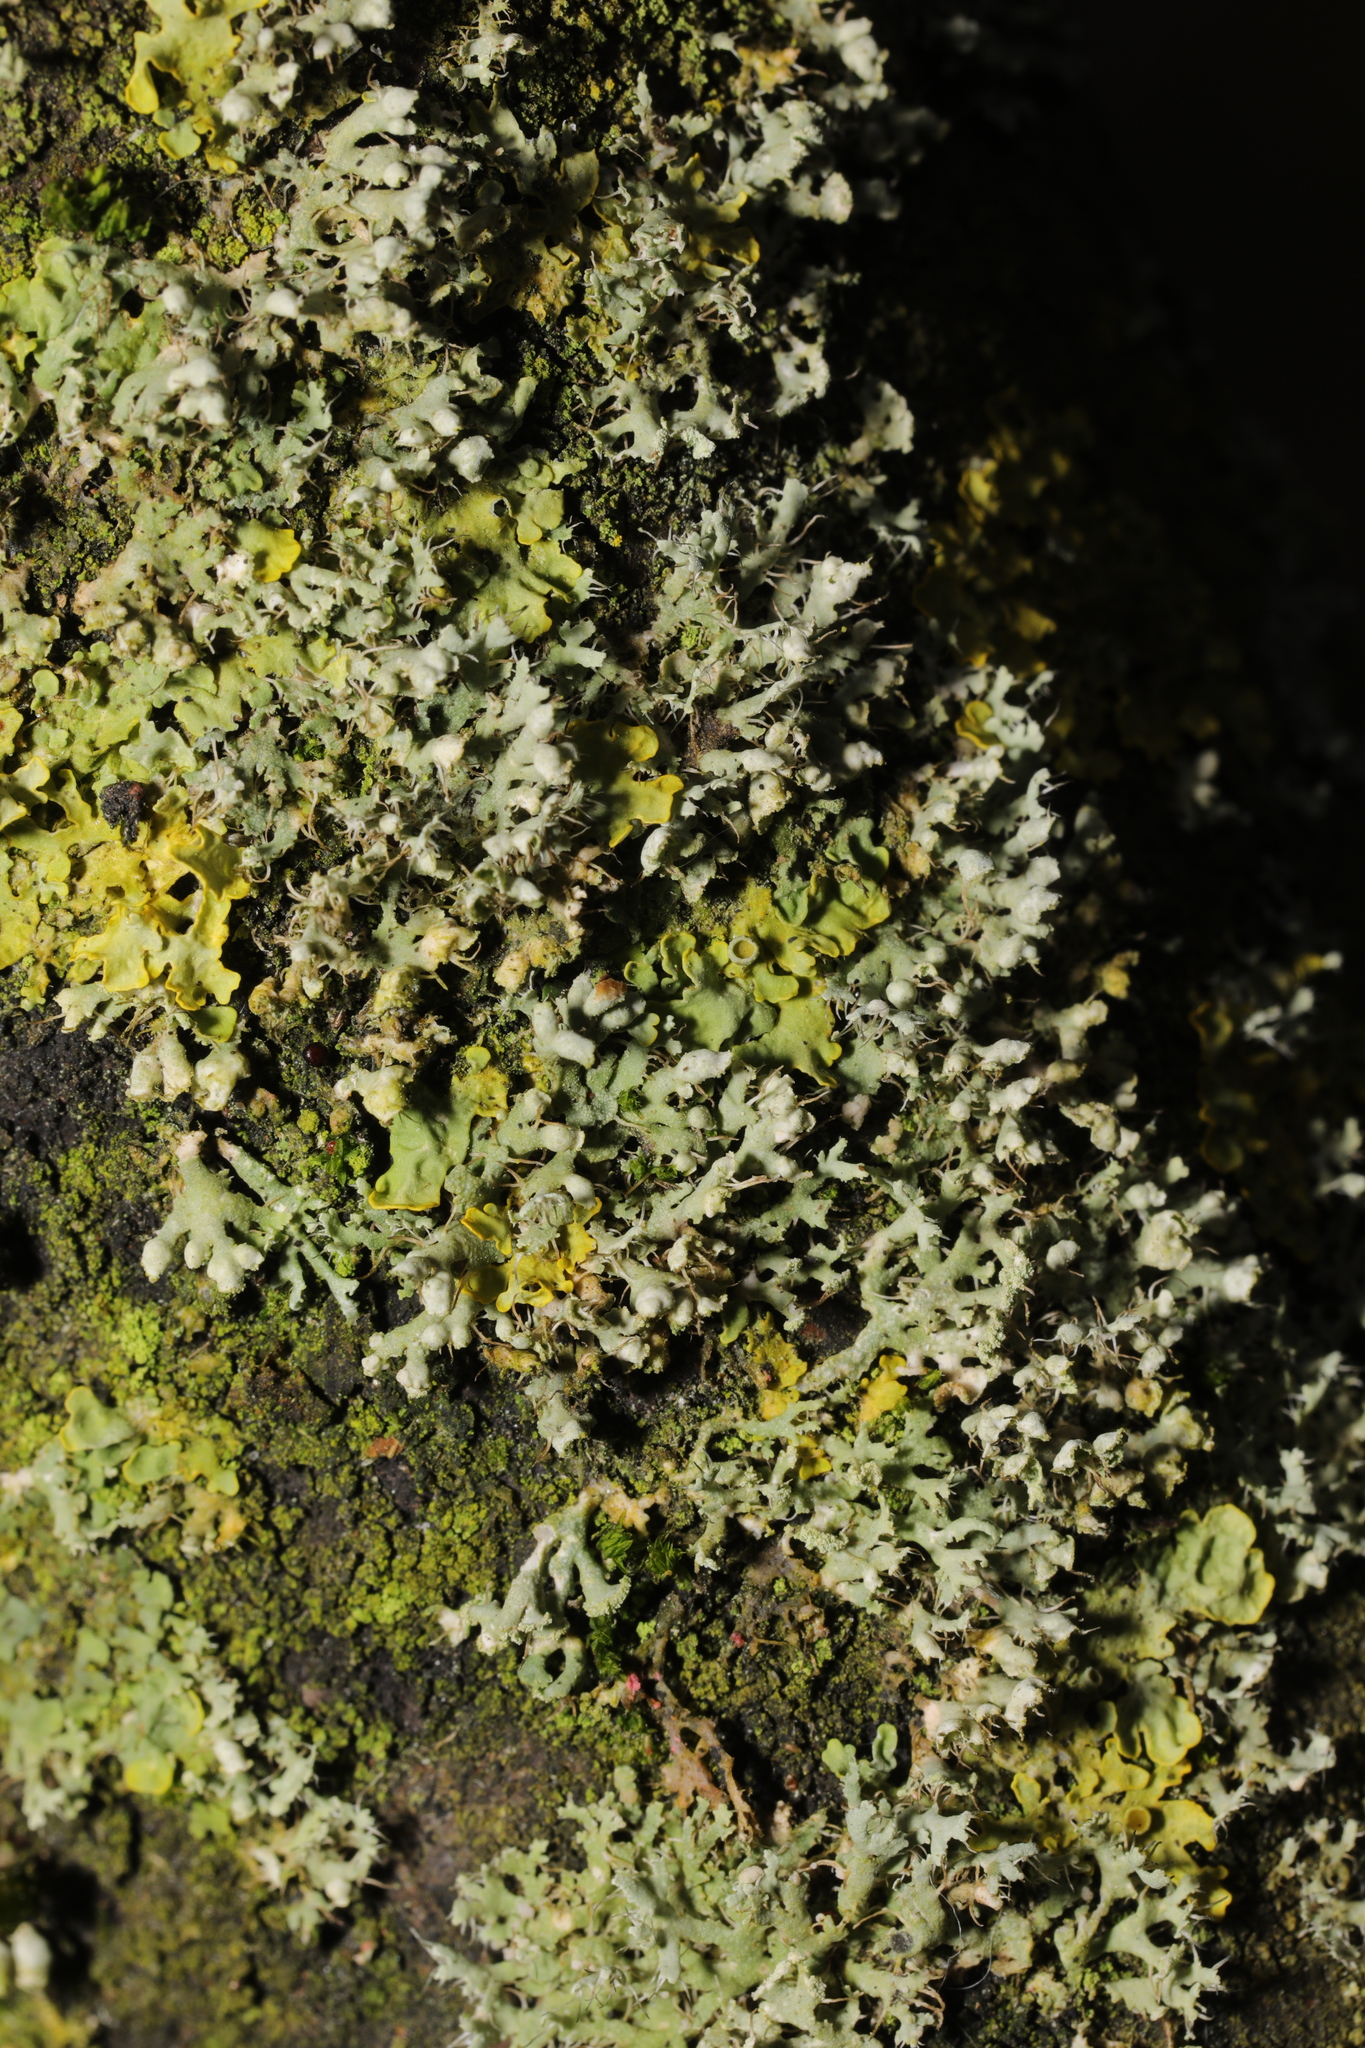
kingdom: Fungi
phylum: Ascomycota
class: Lecanoromycetes
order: Caliciales
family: Physciaceae
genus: Physcia
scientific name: Physcia adscendens
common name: Hooded rosette lichen
